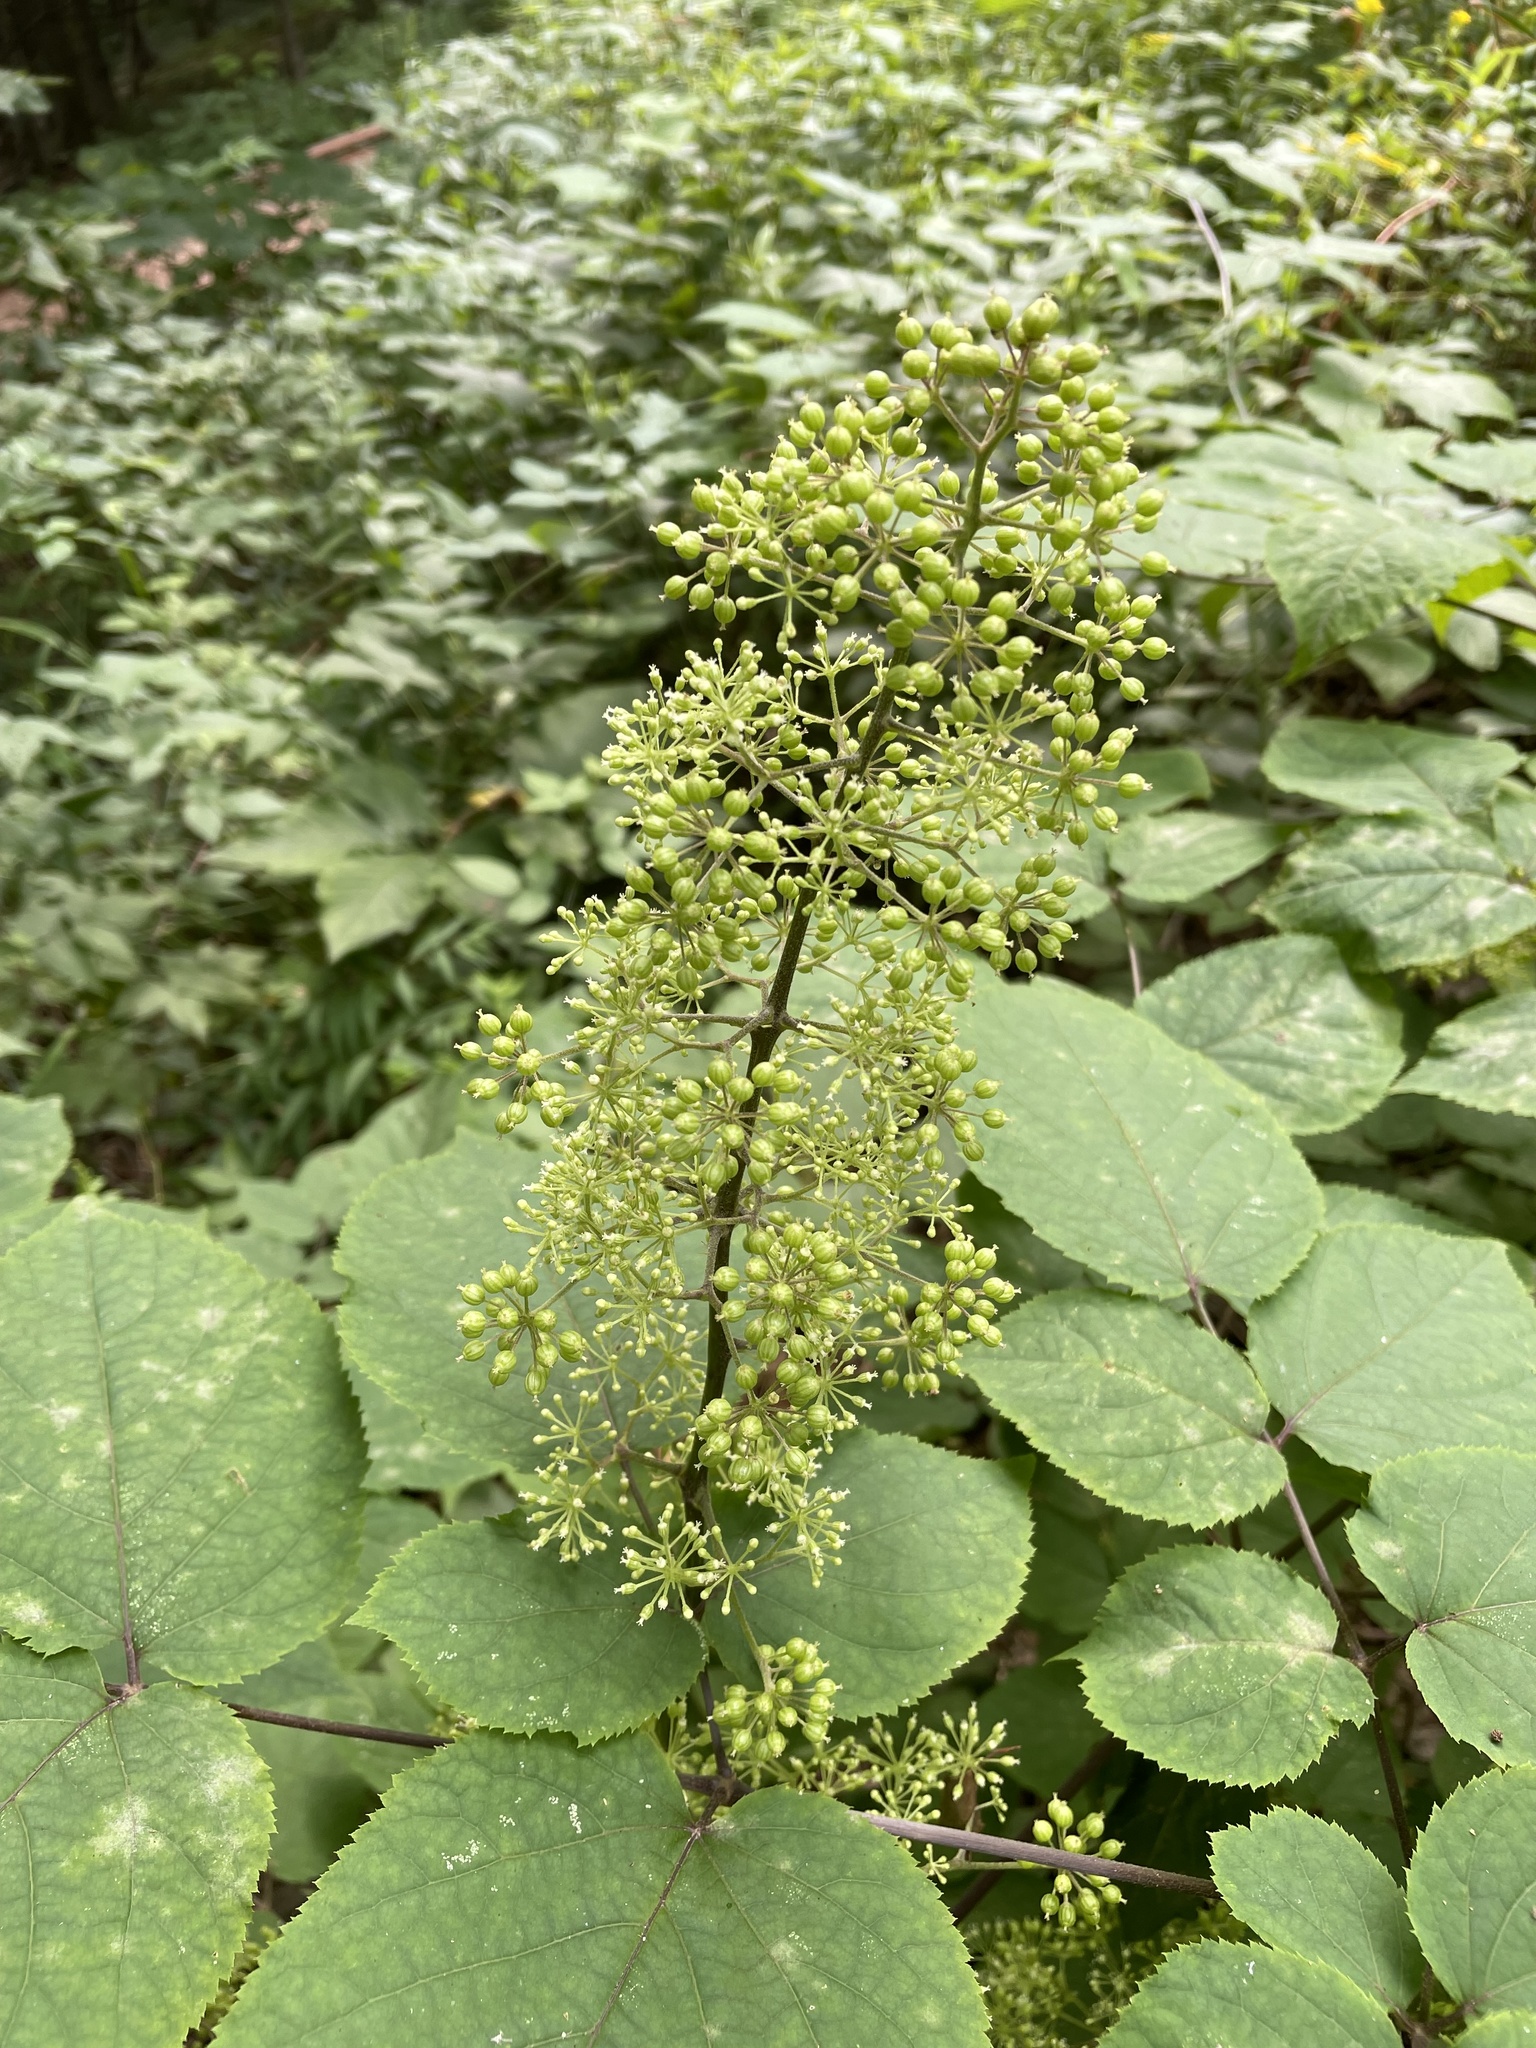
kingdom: Plantae
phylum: Tracheophyta
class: Magnoliopsida
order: Apiales
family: Araliaceae
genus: Aralia
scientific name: Aralia racemosa
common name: American-spikenard
